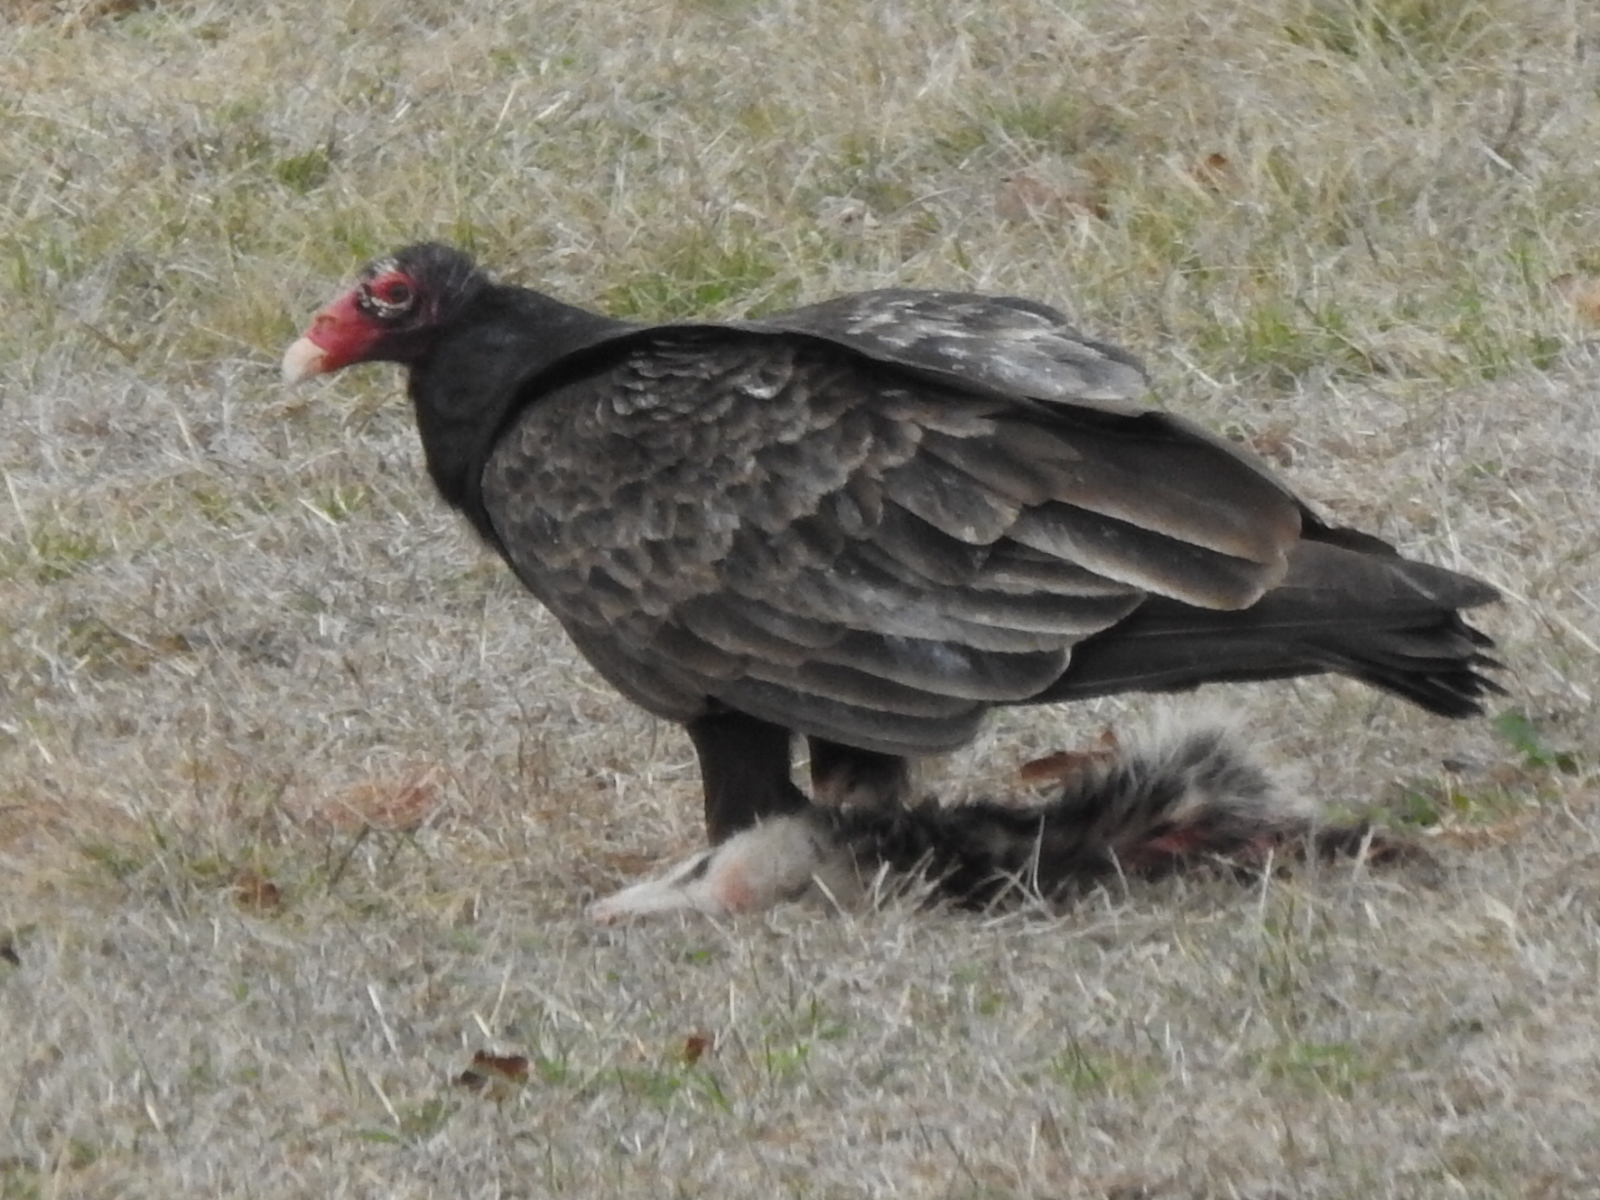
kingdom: Animalia
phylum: Chordata
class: Aves
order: Accipitriformes
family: Cathartidae
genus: Cathartes
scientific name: Cathartes aura
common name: Turkey vulture
